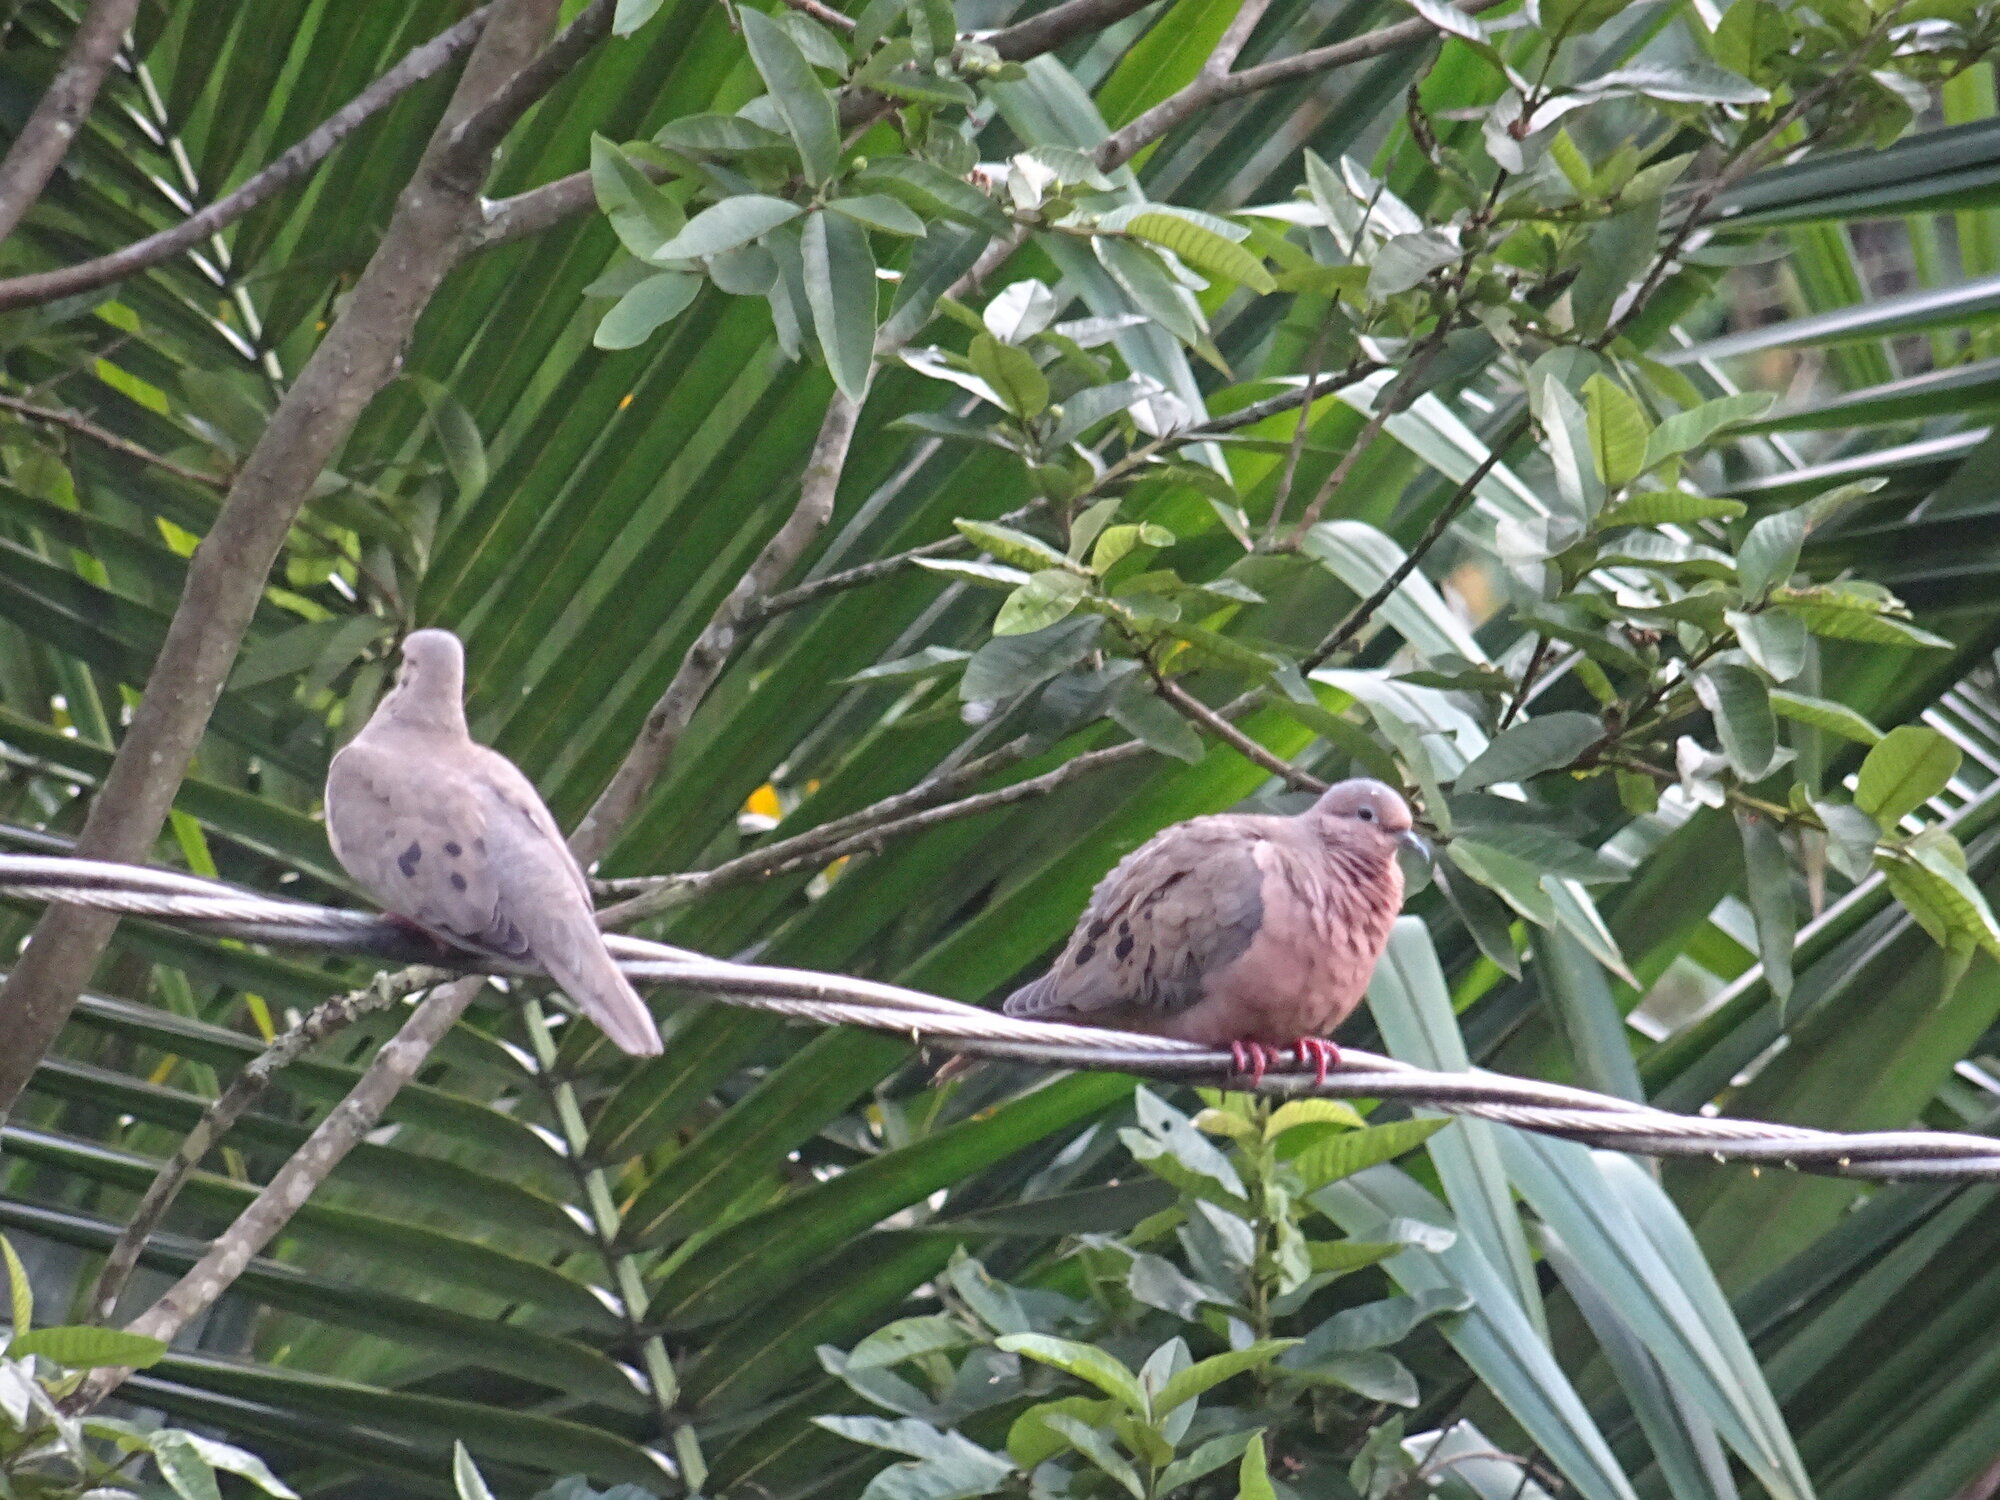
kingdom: Animalia
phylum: Chordata
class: Aves
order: Columbiformes
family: Columbidae
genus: Zenaida
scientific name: Zenaida auriculata
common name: Eared dove
